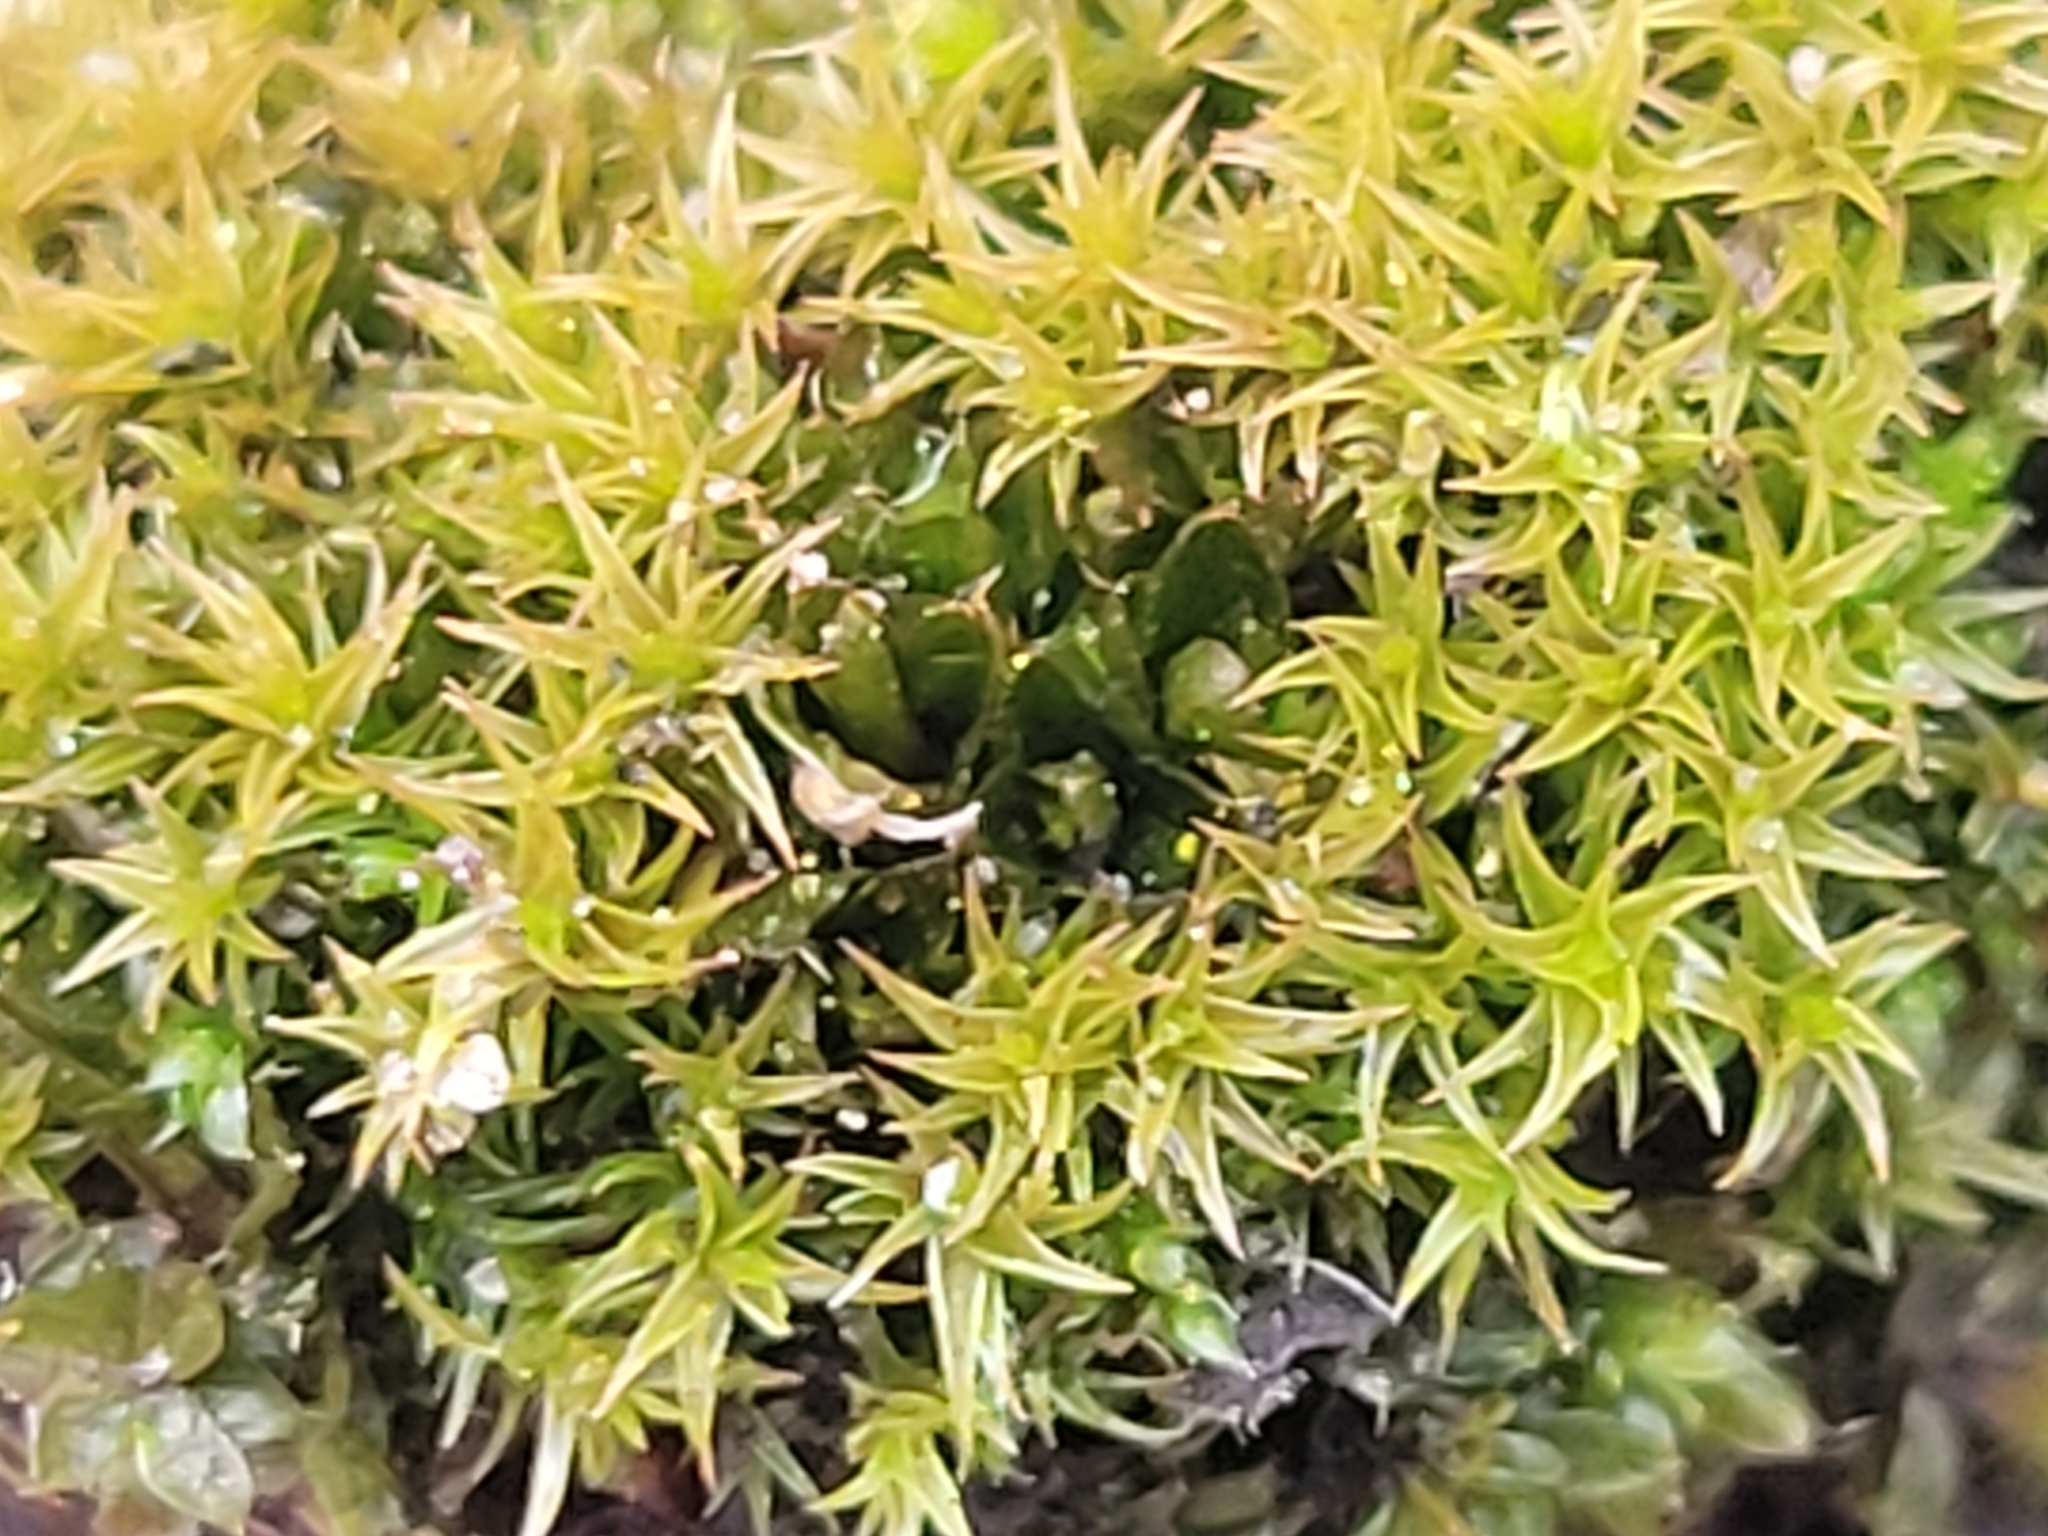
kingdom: Plantae
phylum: Bryophyta
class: Bryopsida
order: Dicranales
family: Ditrichaceae
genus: Ceratodon
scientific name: Ceratodon purpureus
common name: Redshank
